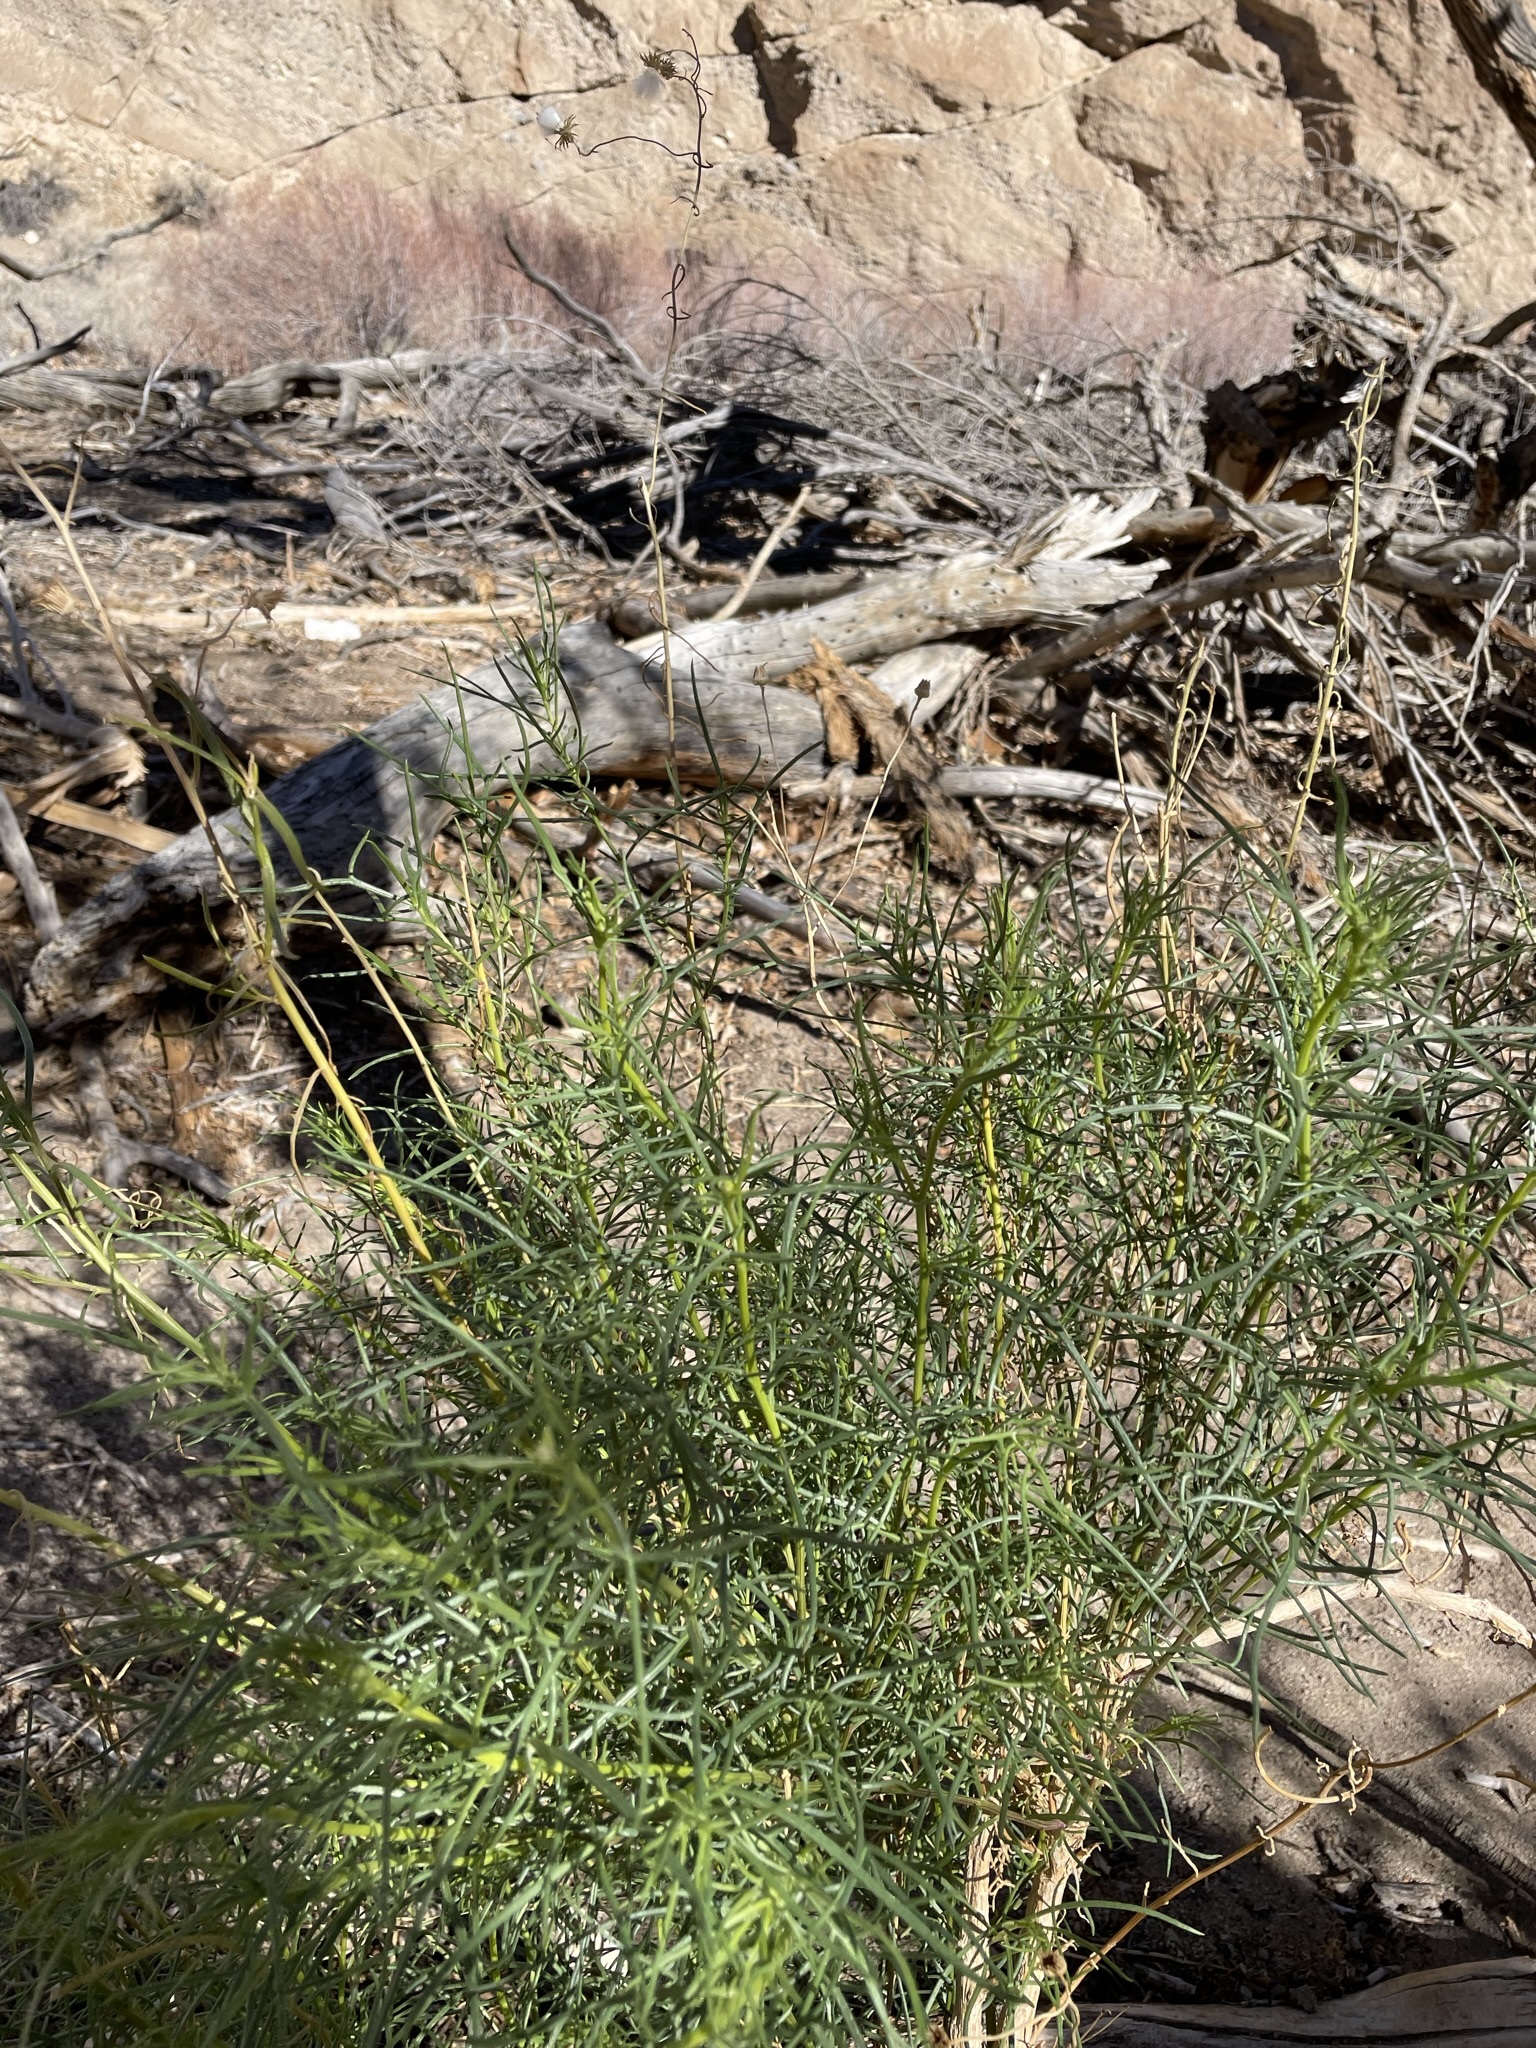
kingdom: Plantae
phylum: Tracheophyta
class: Magnoliopsida
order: Asterales
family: Asteraceae
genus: Senecio
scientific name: Senecio flaccidus
